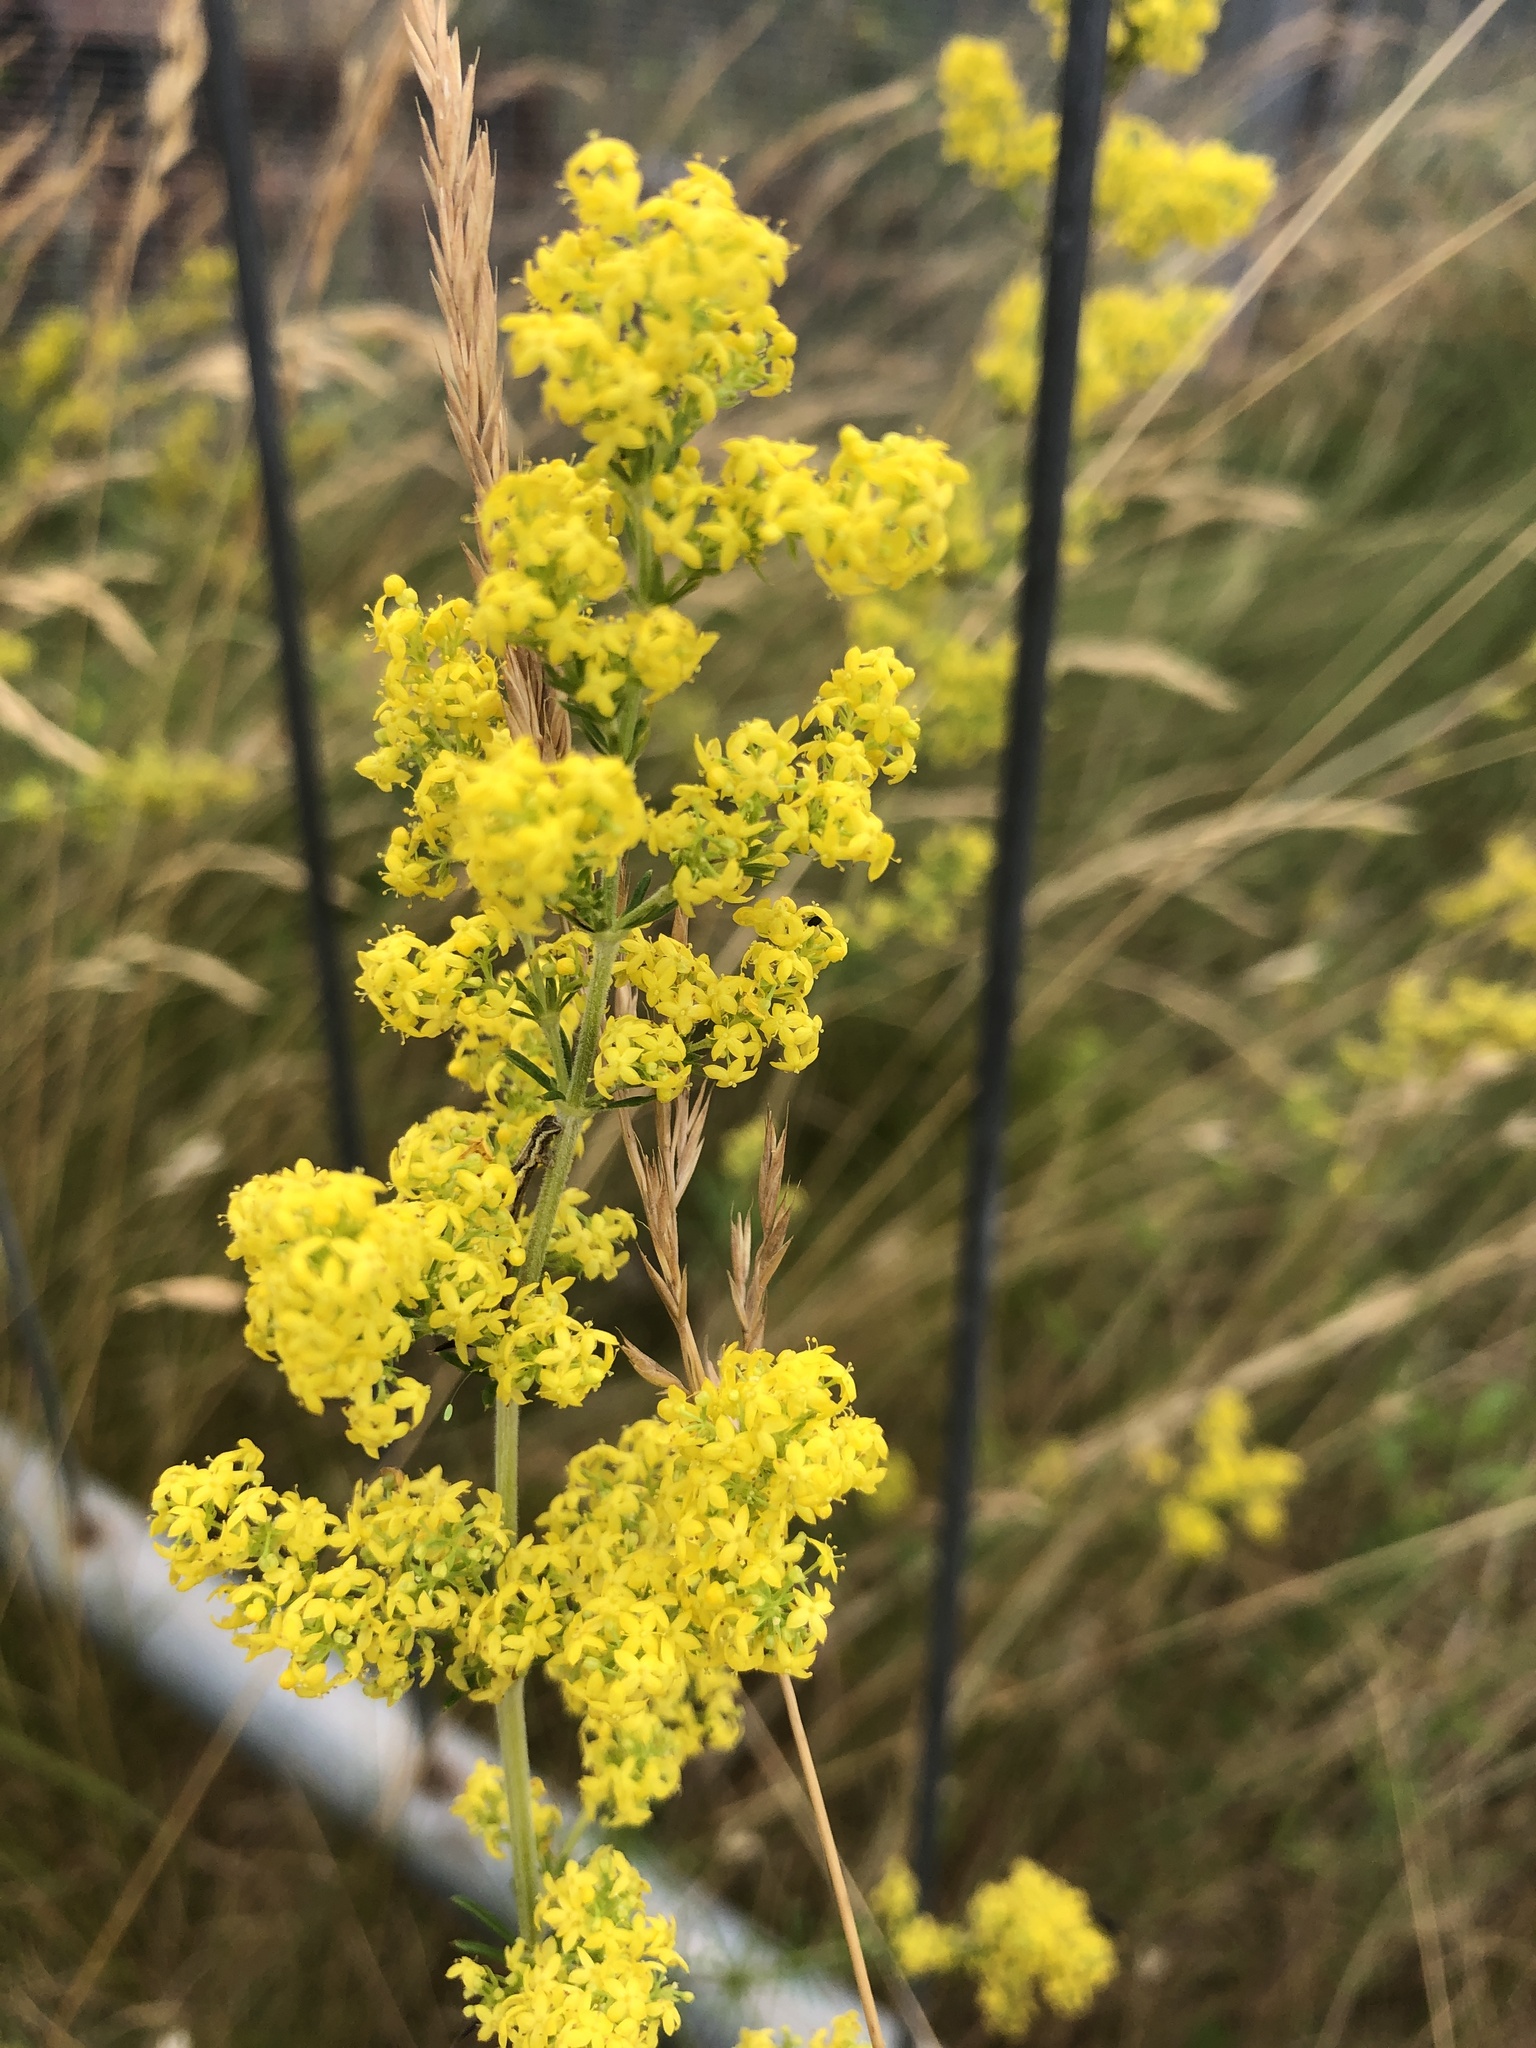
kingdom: Plantae
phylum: Tracheophyta
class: Magnoliopsida
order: Gentianales
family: Rubiaceae
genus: Galium
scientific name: Galium verum
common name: Lady's bedstraw
